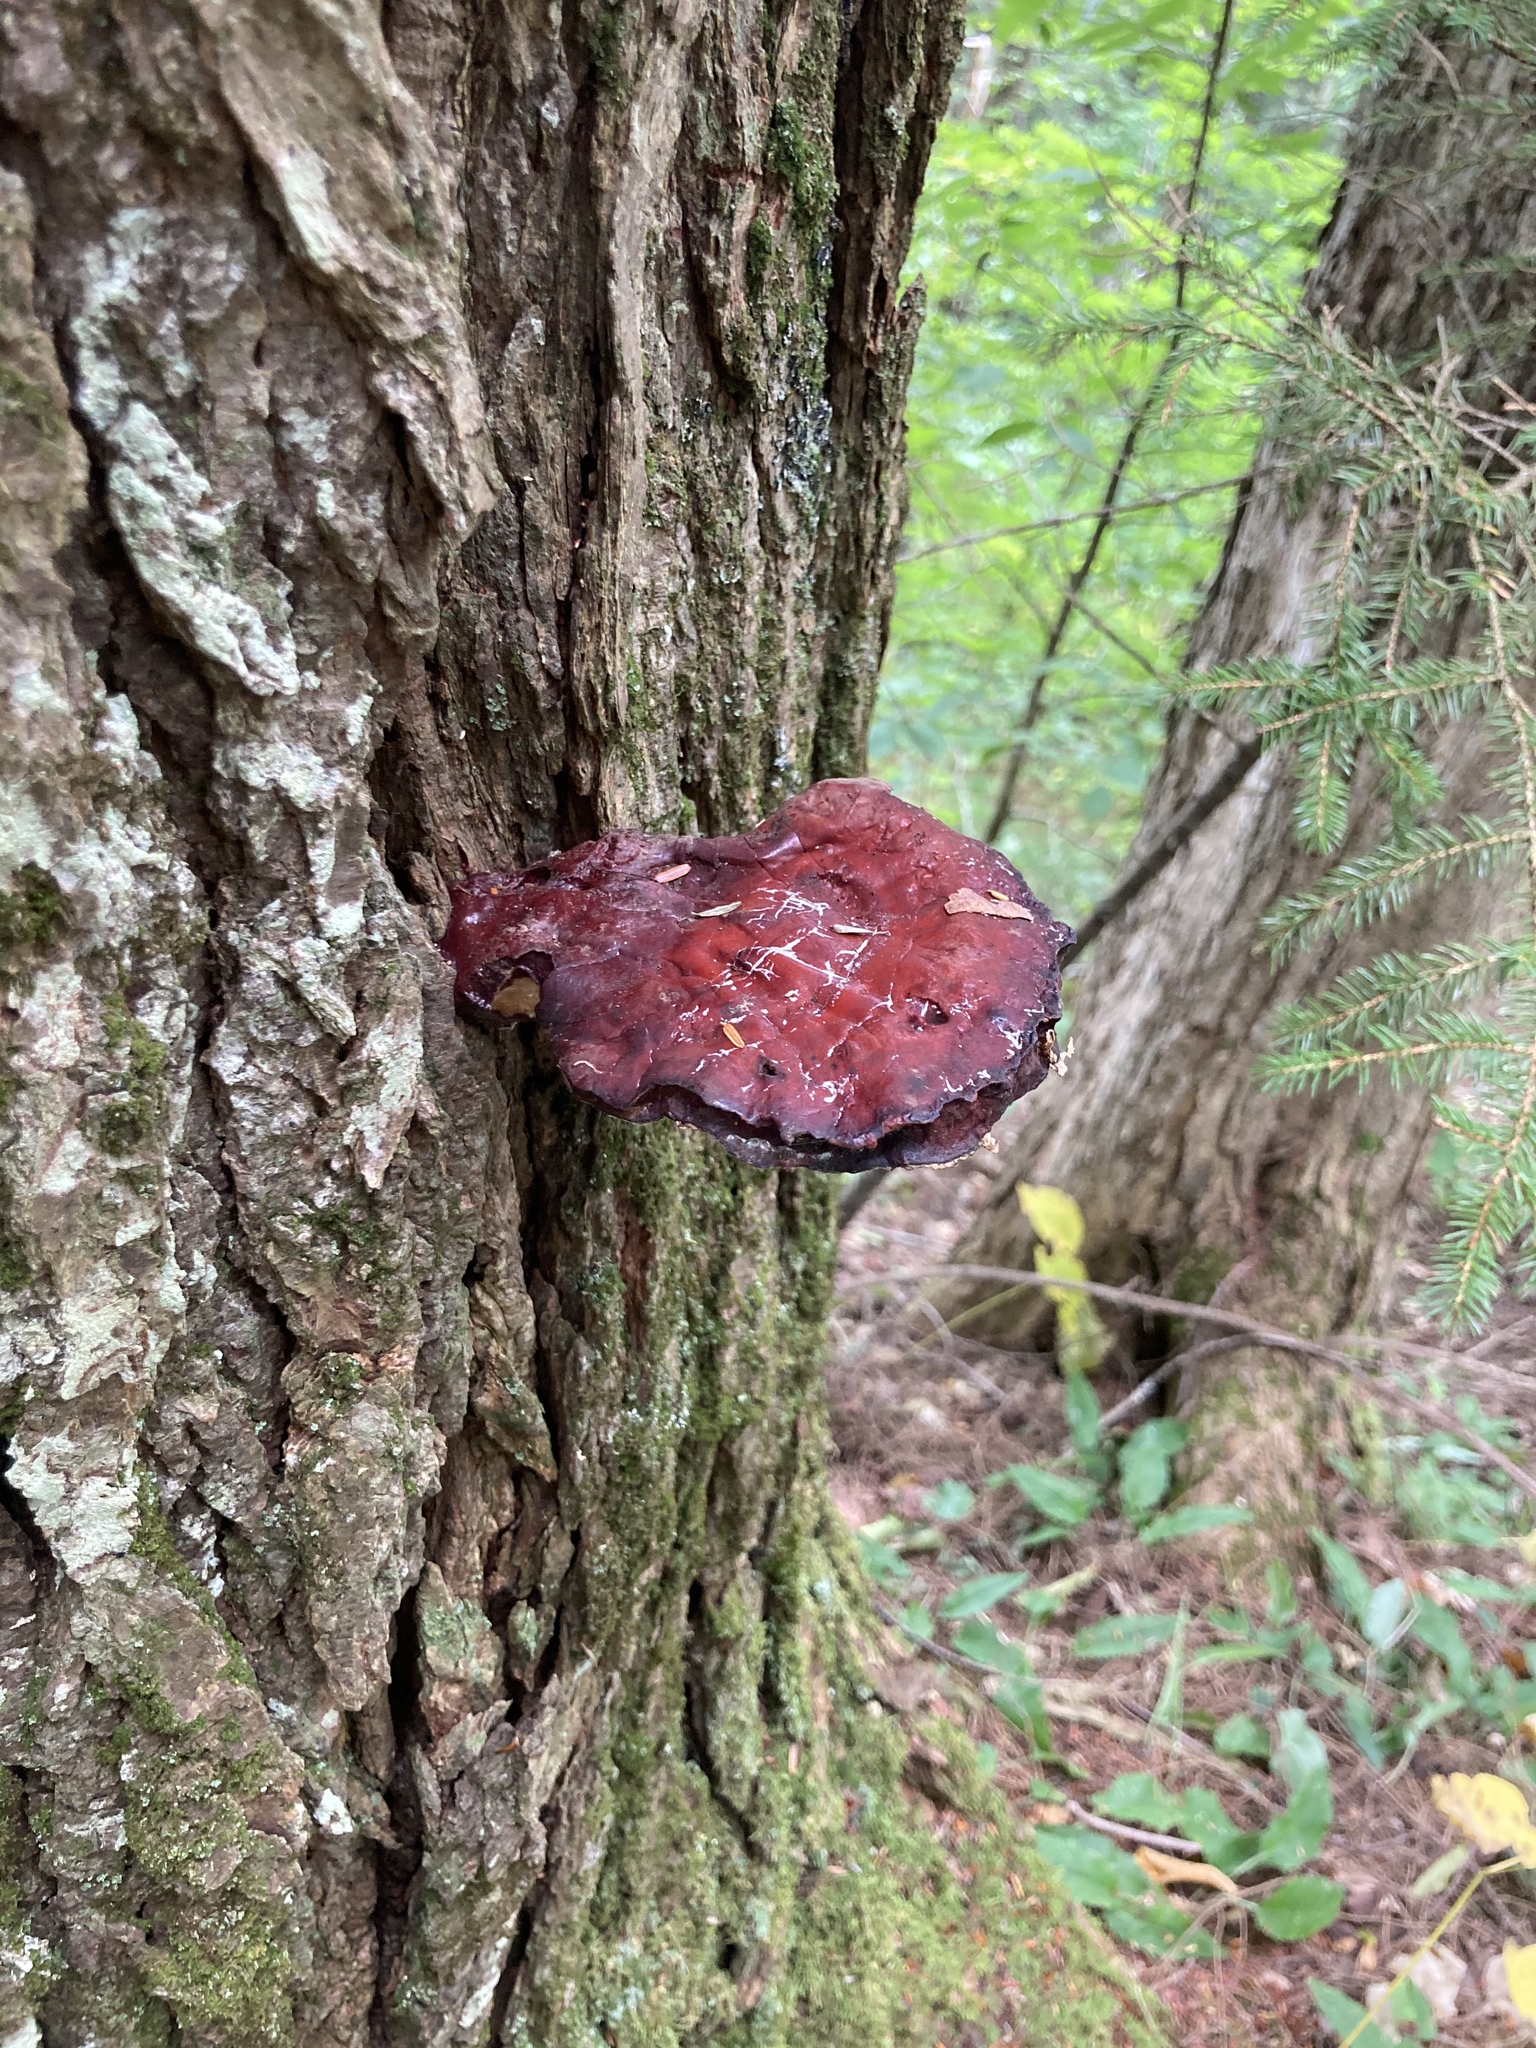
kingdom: Fungi
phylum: Basidiomycota
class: Agaricomycetes
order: Polyporales
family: Polyporaceae
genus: Ganoderma
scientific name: Ganoderma tsugae
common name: Hemlock varnish shelf
